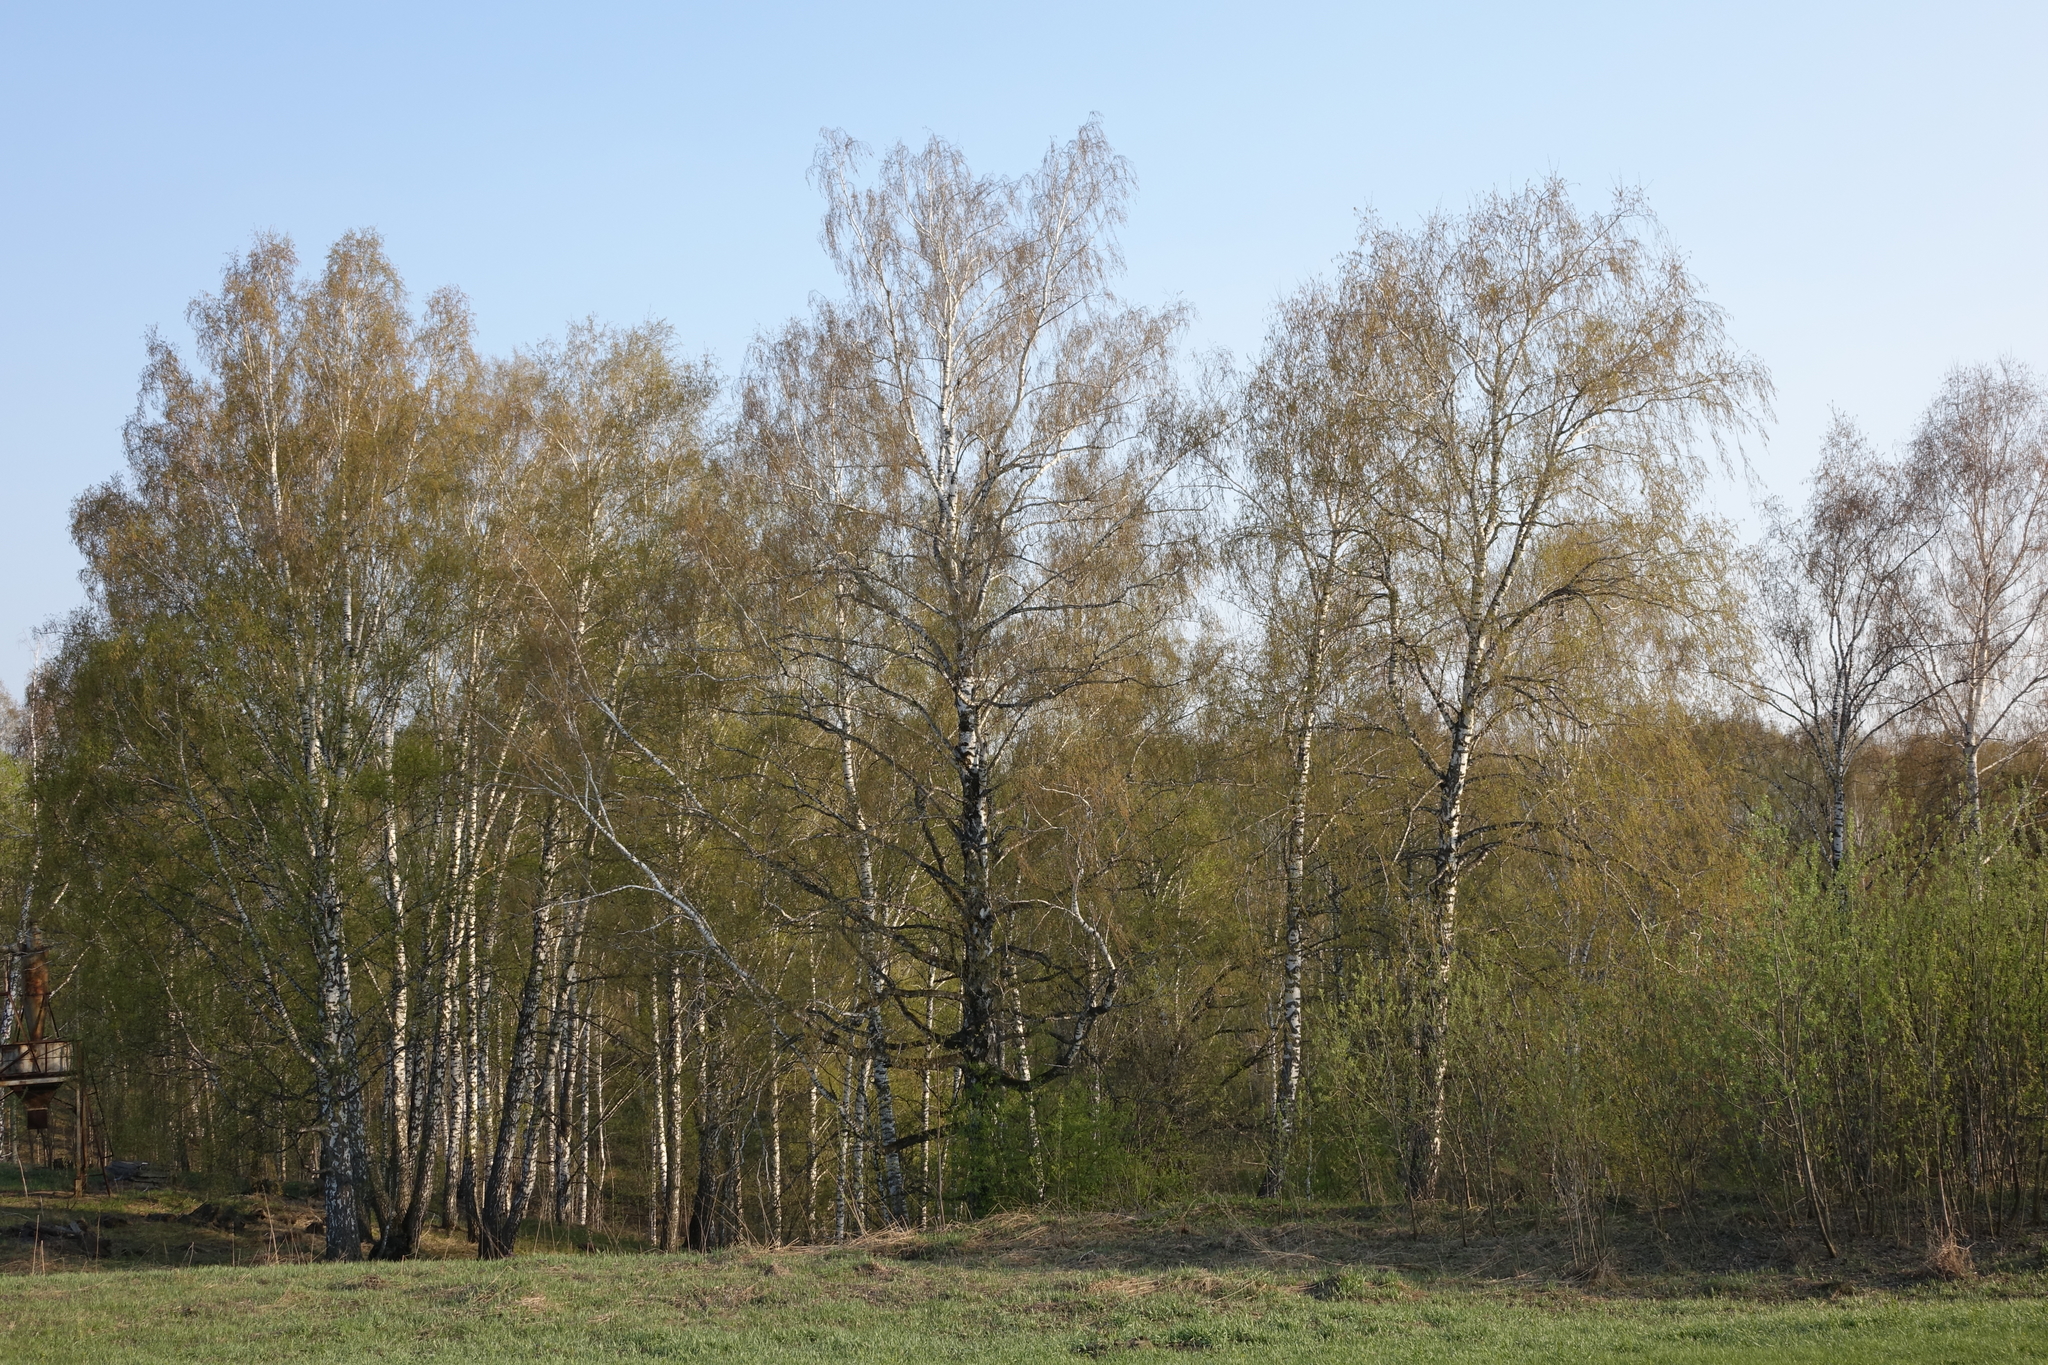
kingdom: Plantae
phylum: Tracheophyta
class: Magnoliopsida
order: Fagales
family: Betulaceae
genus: Betula
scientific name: Betula pendula
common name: Silver birch
